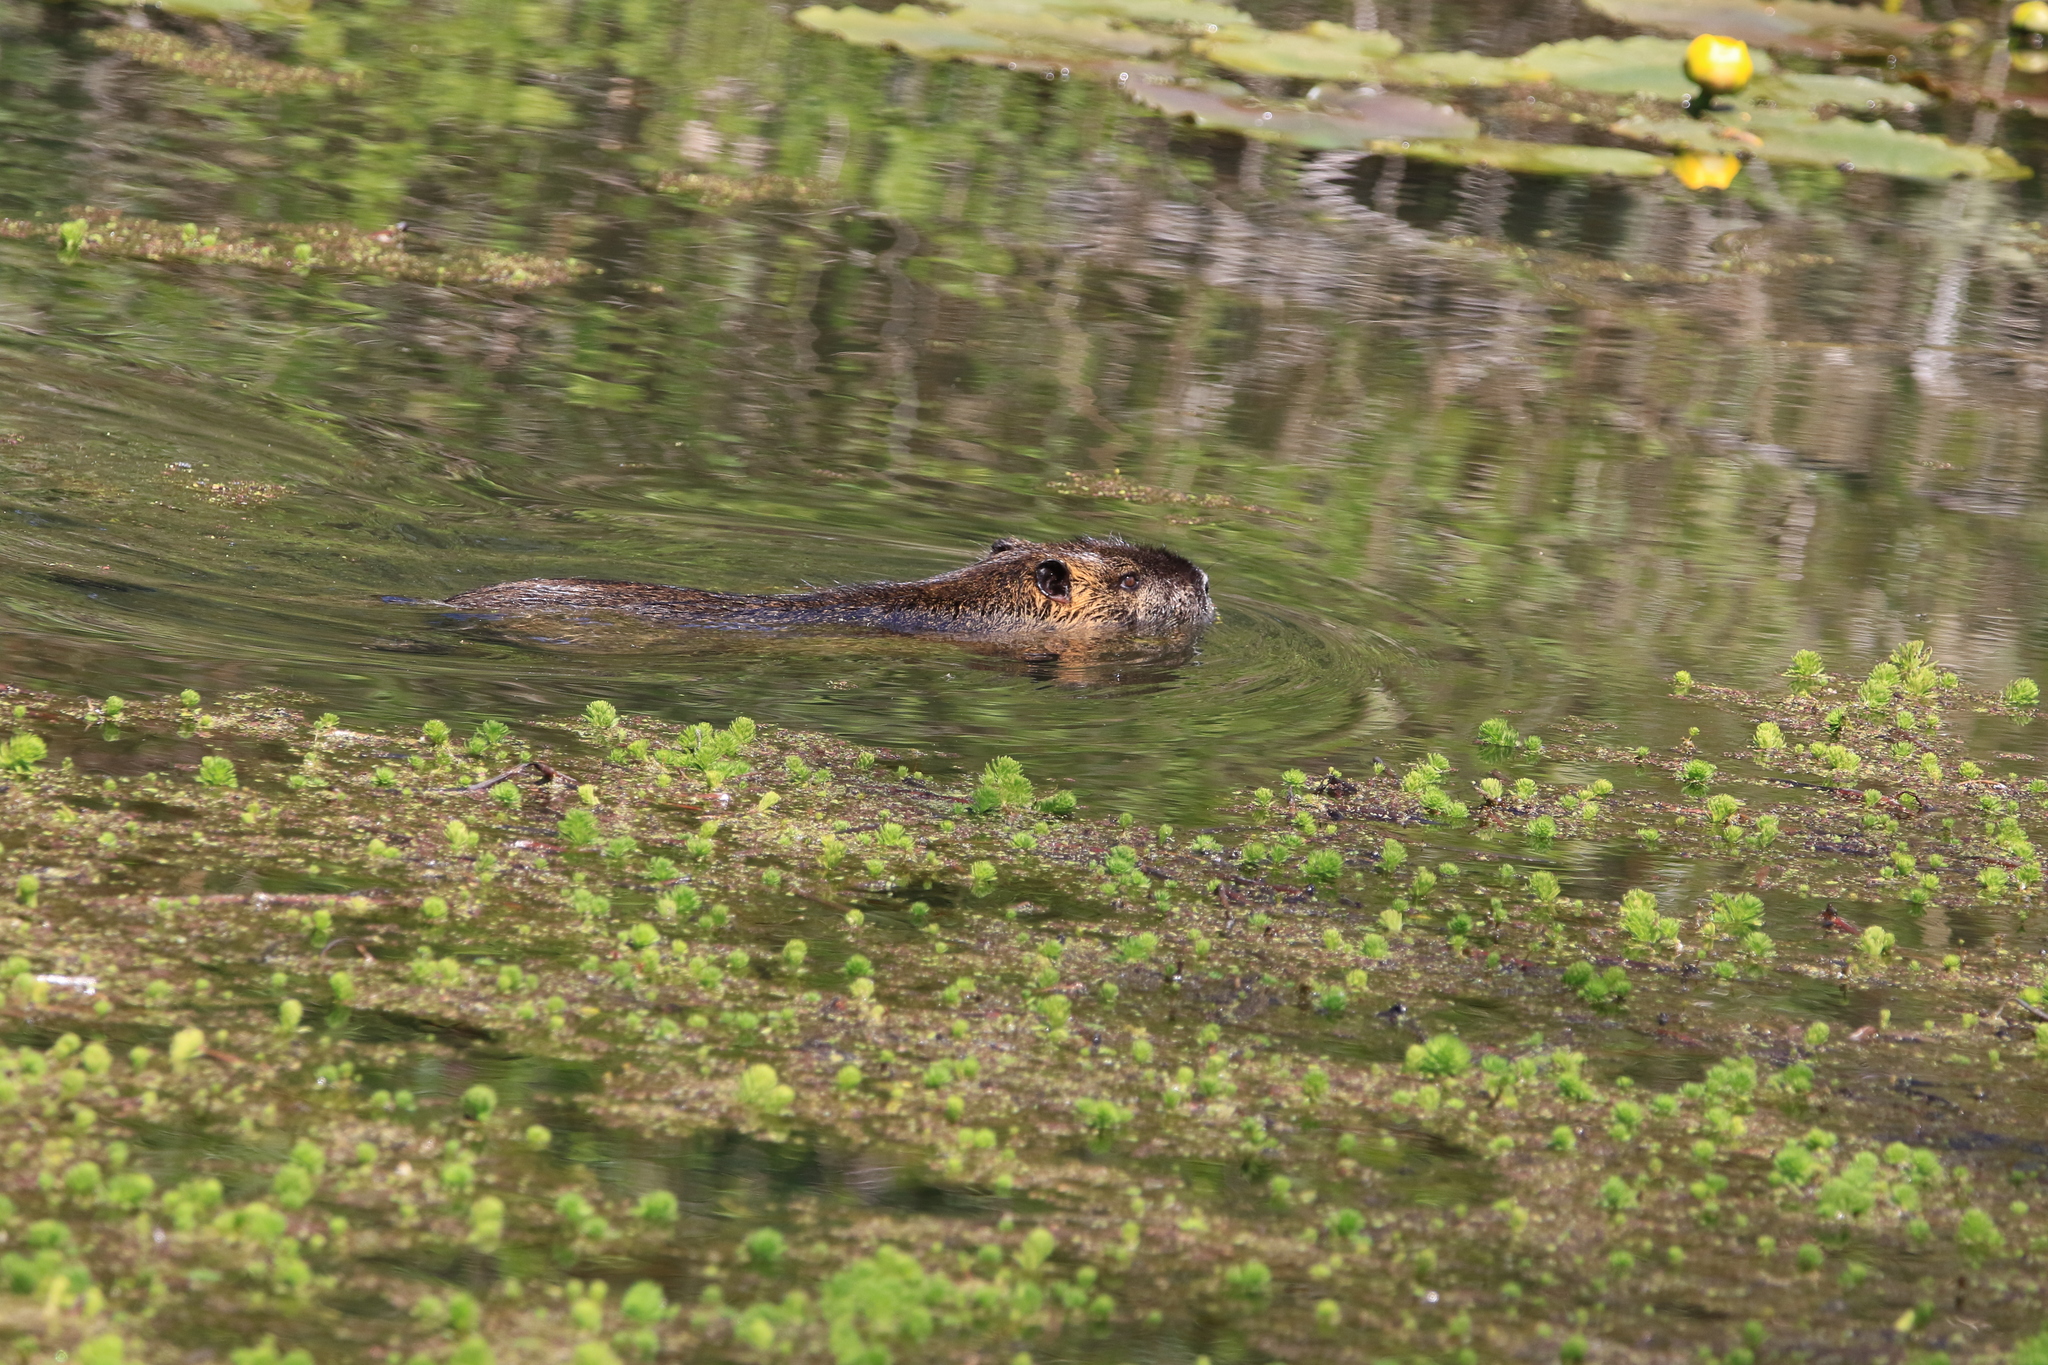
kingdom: Animalia
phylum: Chordata
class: Mammalia
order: Rodentia
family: Myocastoridae
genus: Myocastor
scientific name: Myocastor coypus
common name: Coypu
